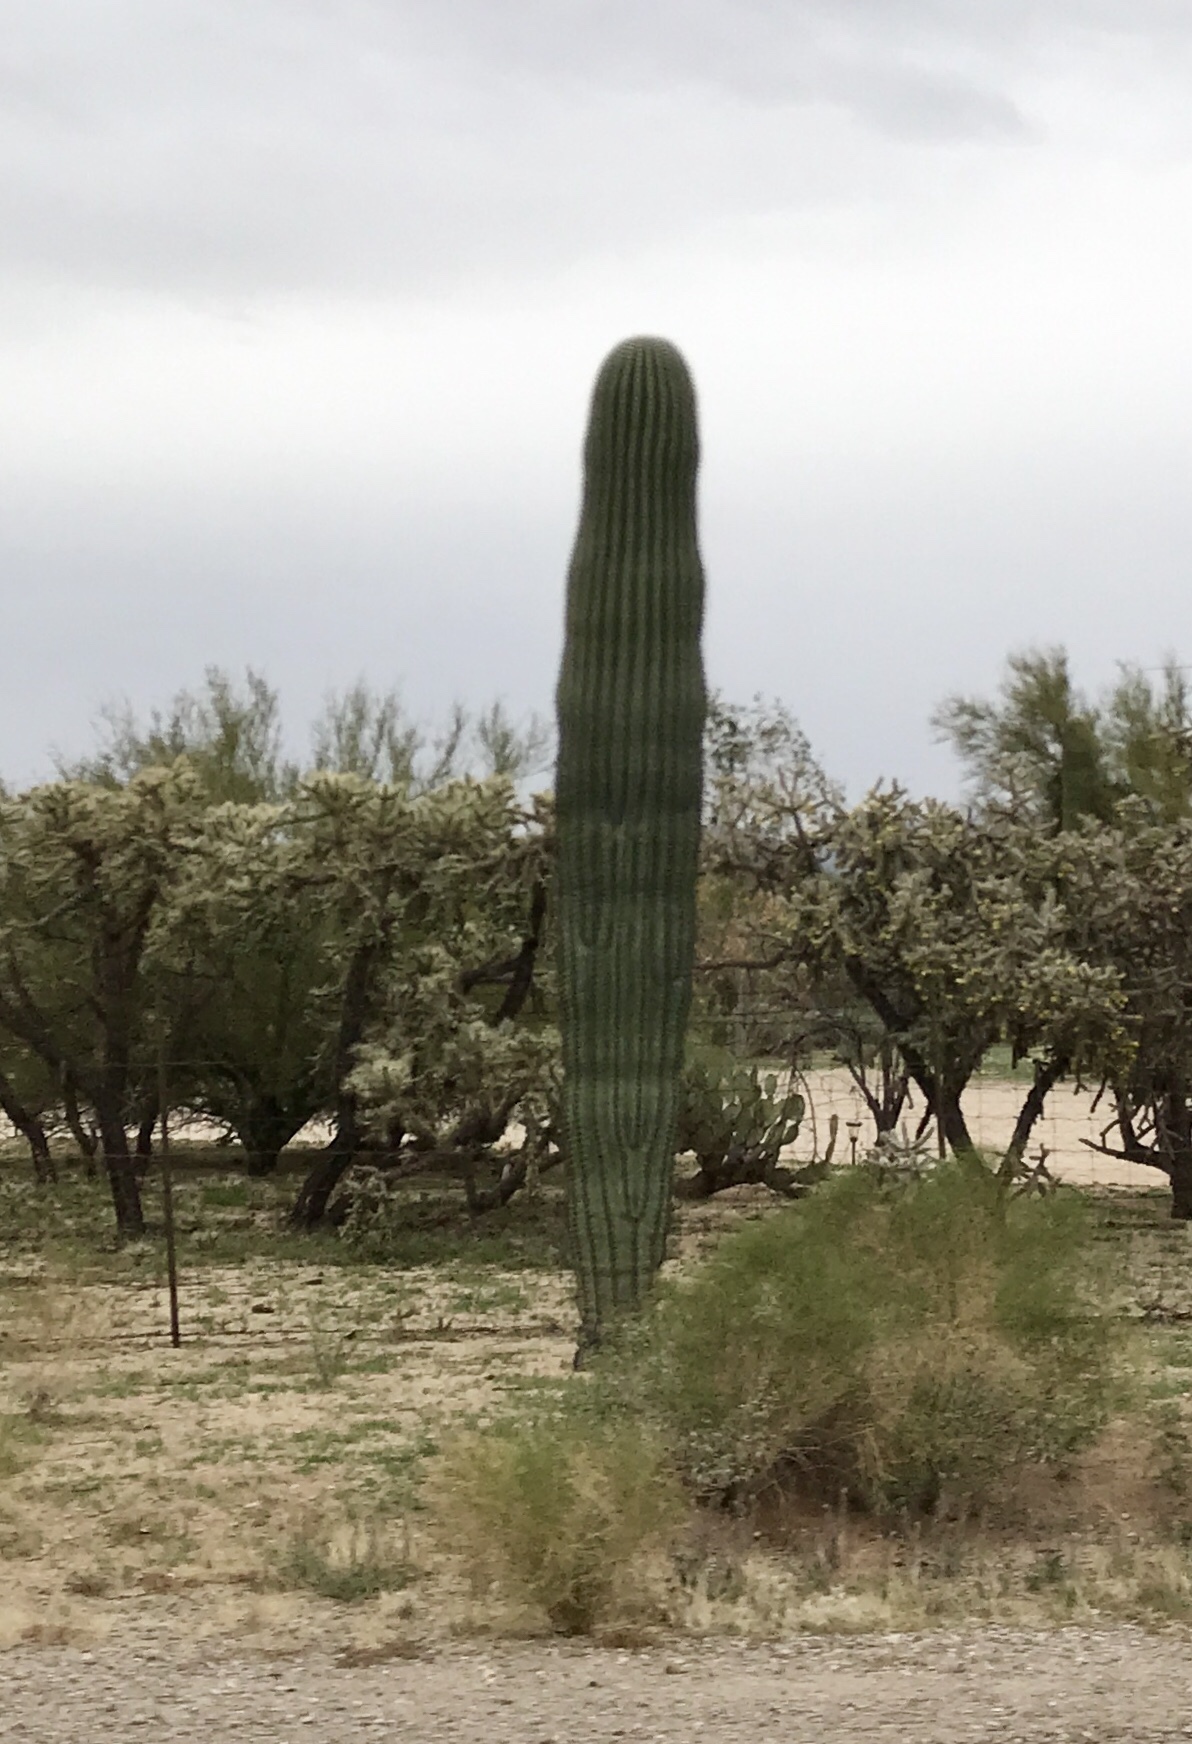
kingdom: Plantae
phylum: Tracheophyta
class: Magnoliopsida
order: Caryophyllales
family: Cactaceae
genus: Carnegiea
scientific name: Carnegiea gigantea
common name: Saguaro
